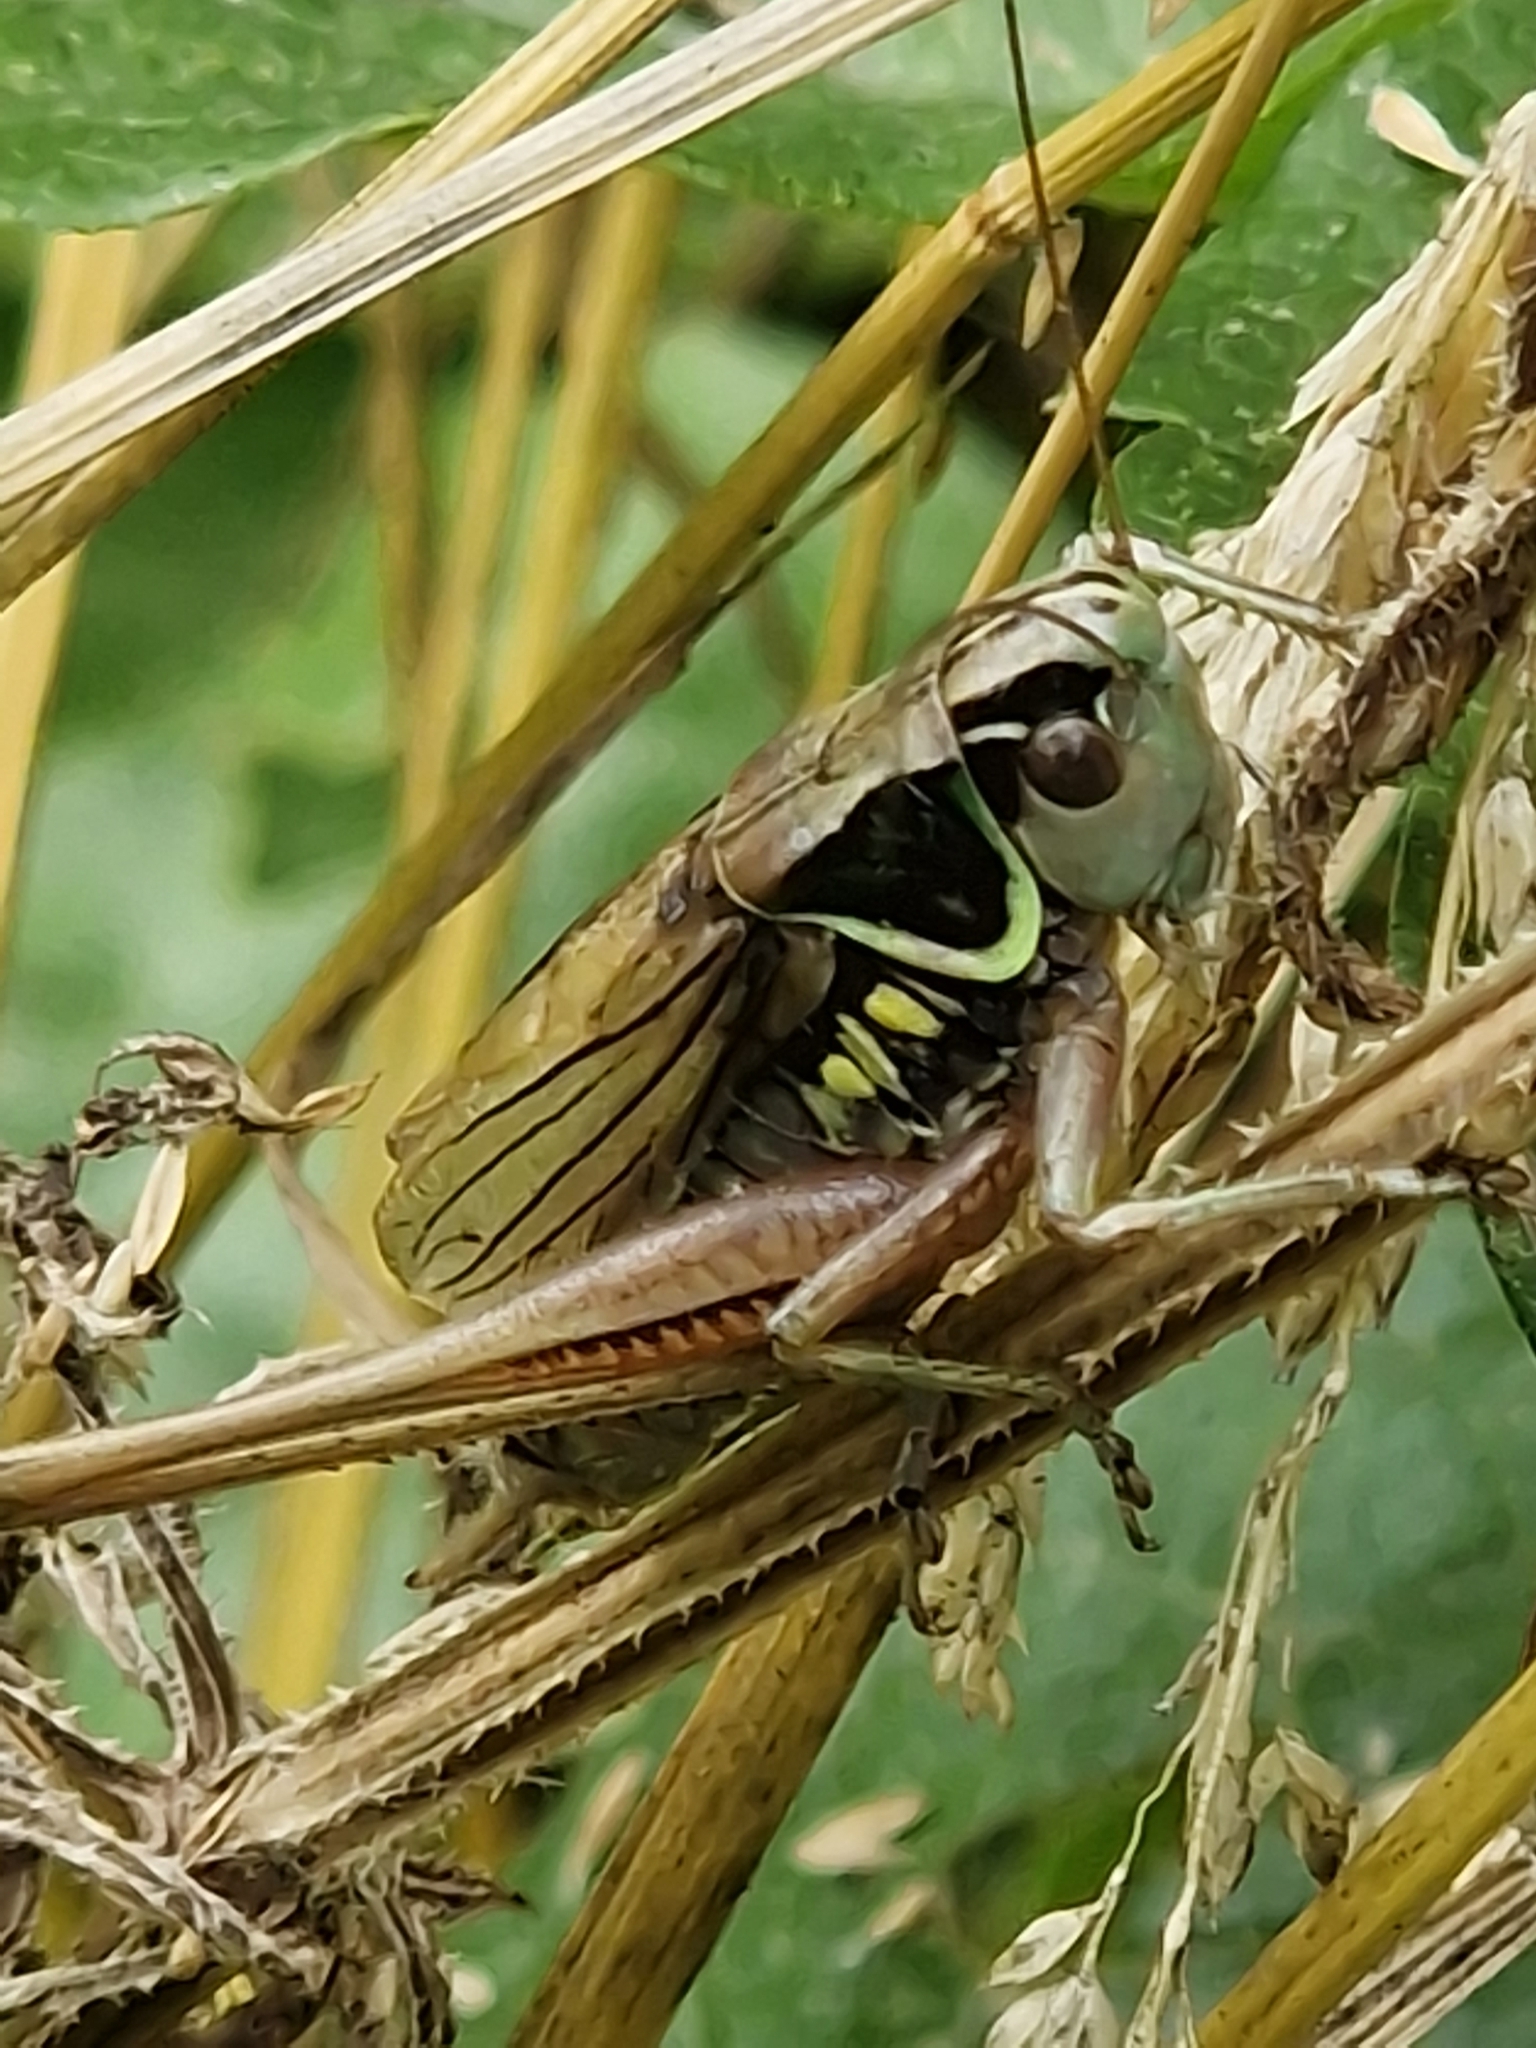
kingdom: Animalia
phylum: Arthropoda
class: Insecta
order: Orthoptera
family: Tettigoniidae
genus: Roeseliana
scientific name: Roeseliana roeselii
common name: Roesel's bush cricket
